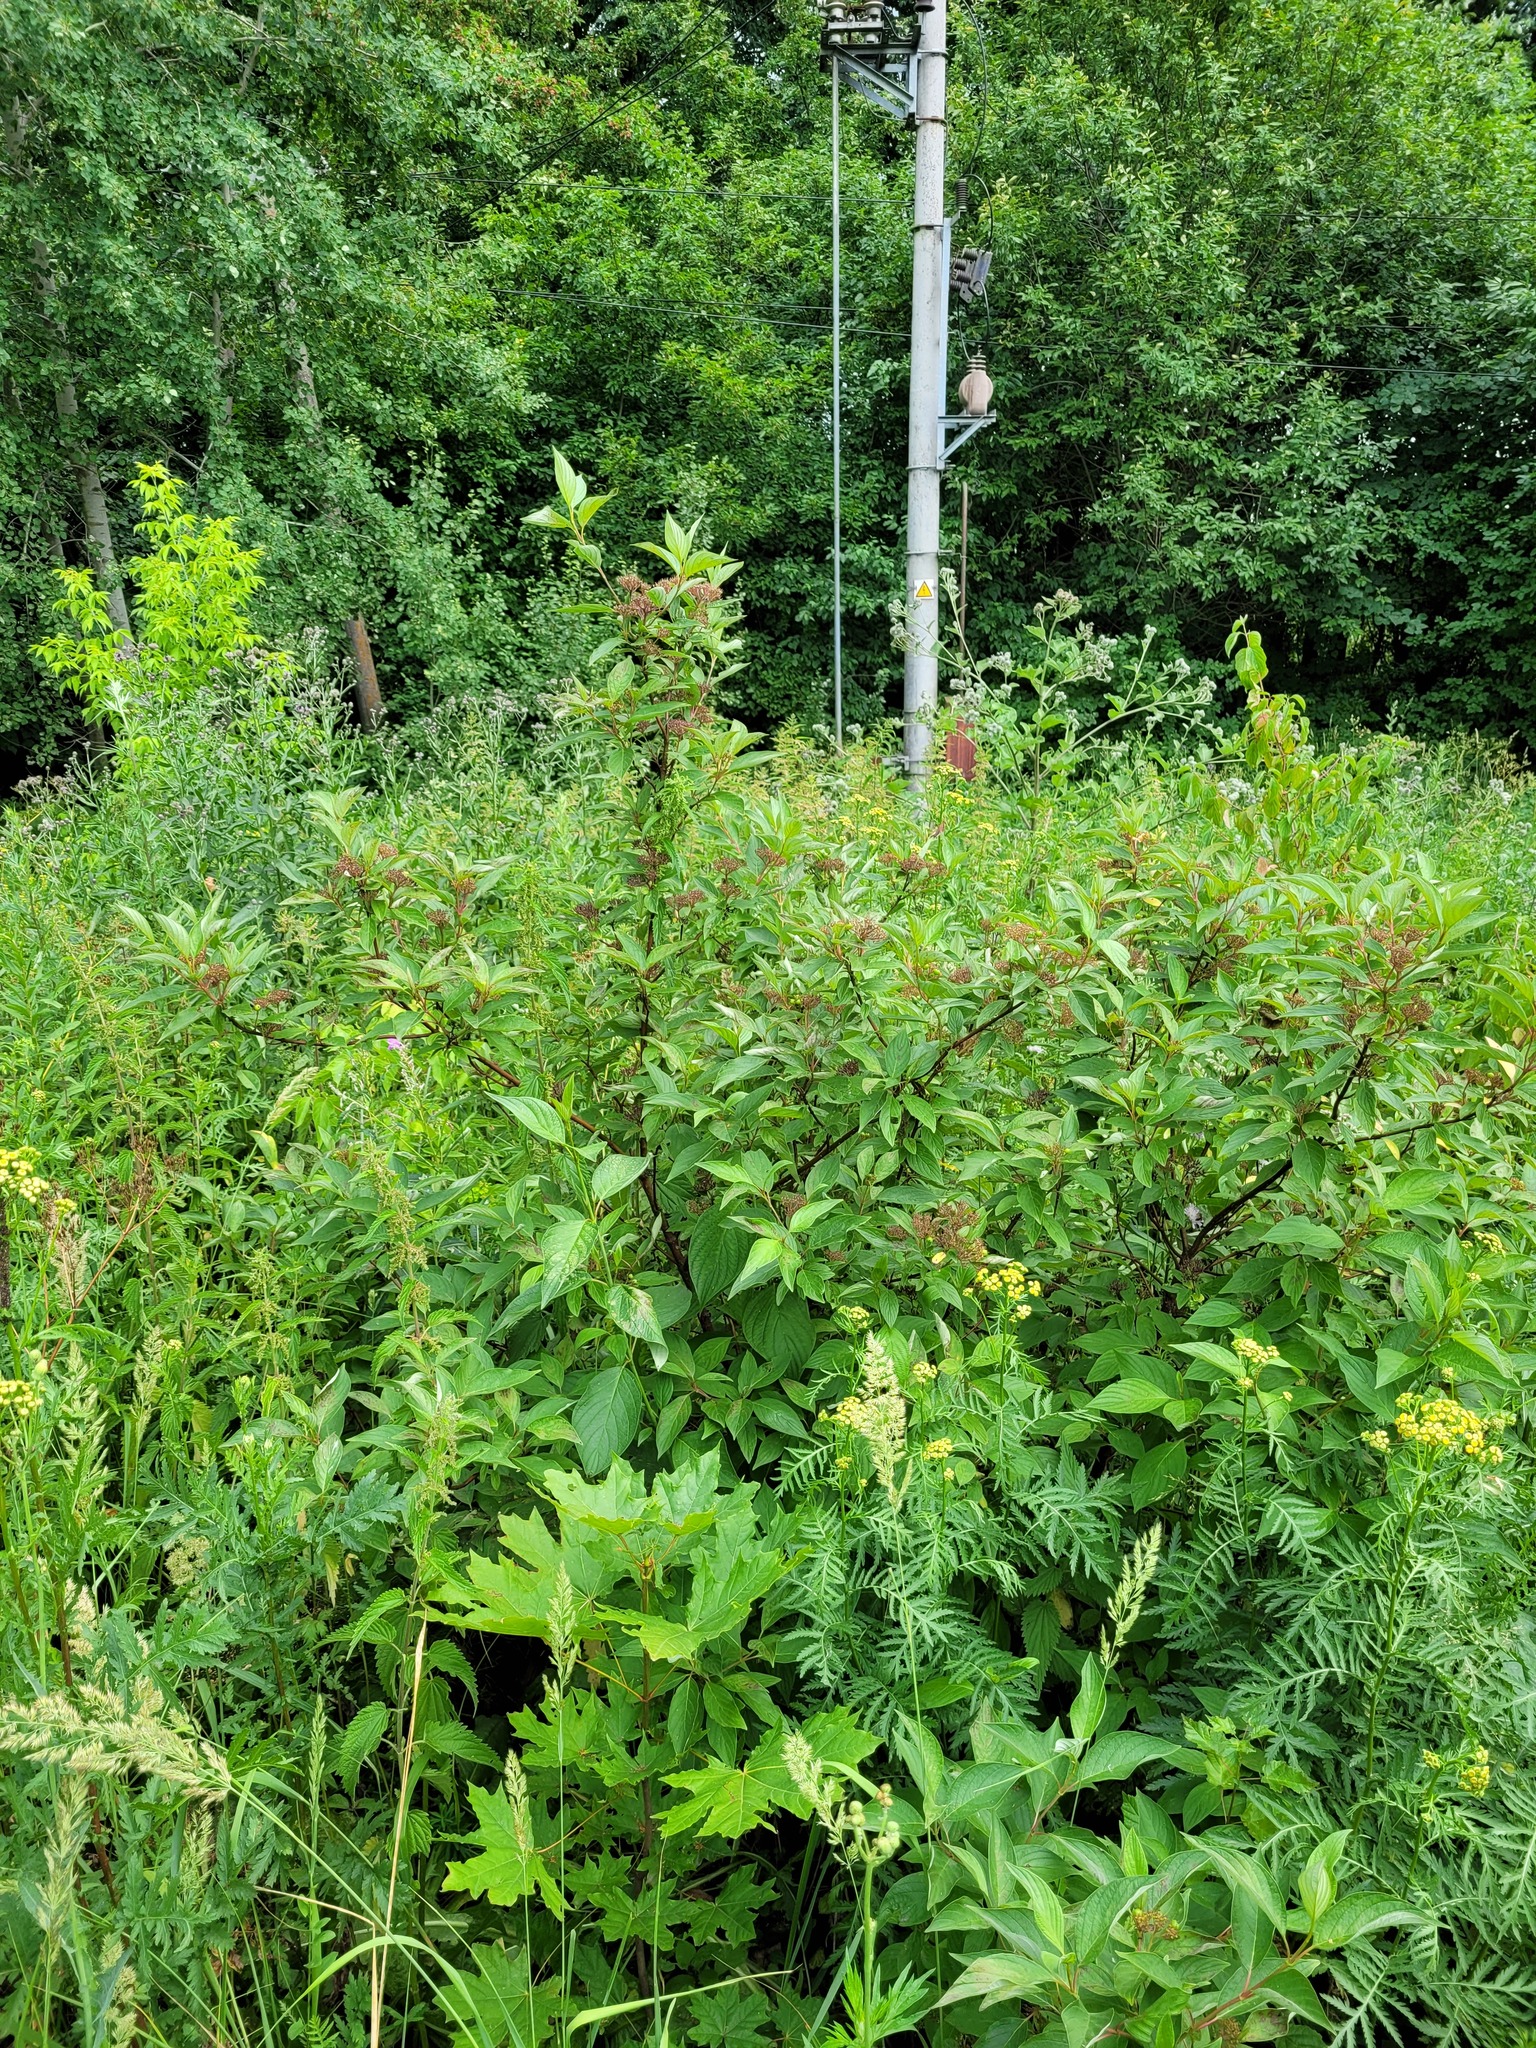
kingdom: Plantae
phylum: Tracheophyta
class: Magnoliopsida
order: Cornales
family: Cornaceae
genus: Cornus
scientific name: Cornus alba
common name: White dogwood
